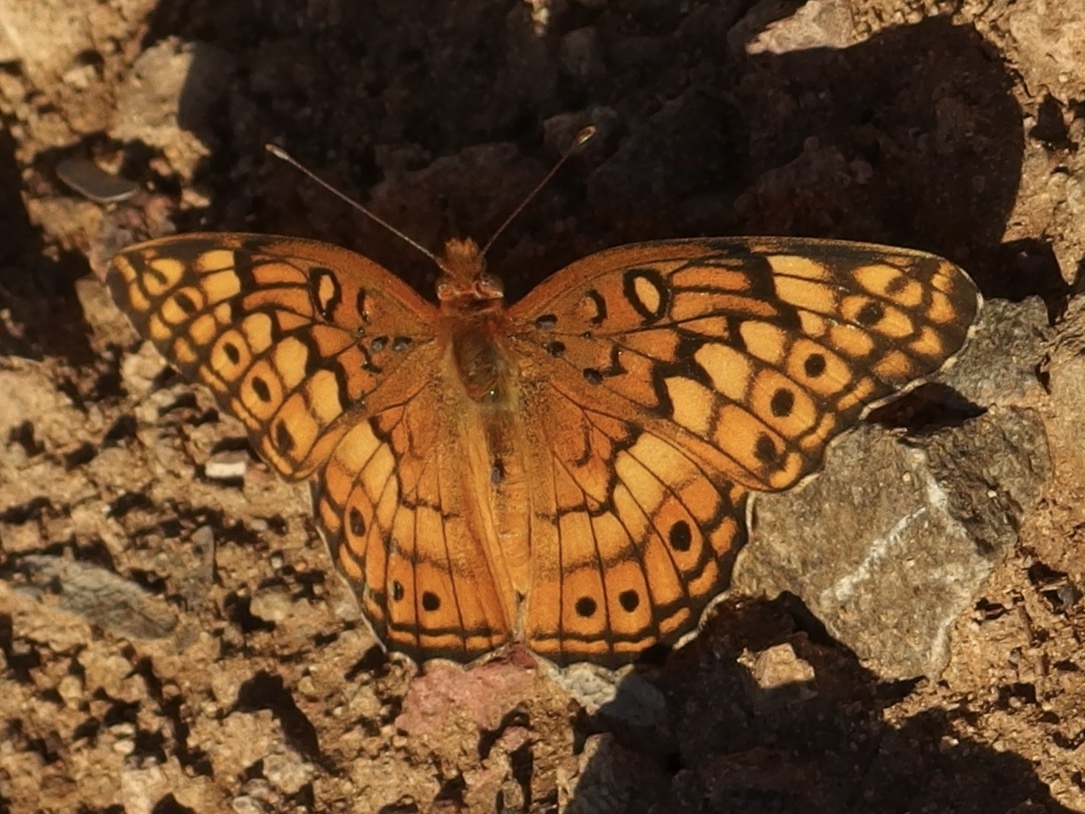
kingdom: Animalia
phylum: Arthropoda
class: Insecta
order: Lepidoptera
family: Nymphalidae
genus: Euptoieta
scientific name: Euptoieta claudia
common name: Variegated fritillary
